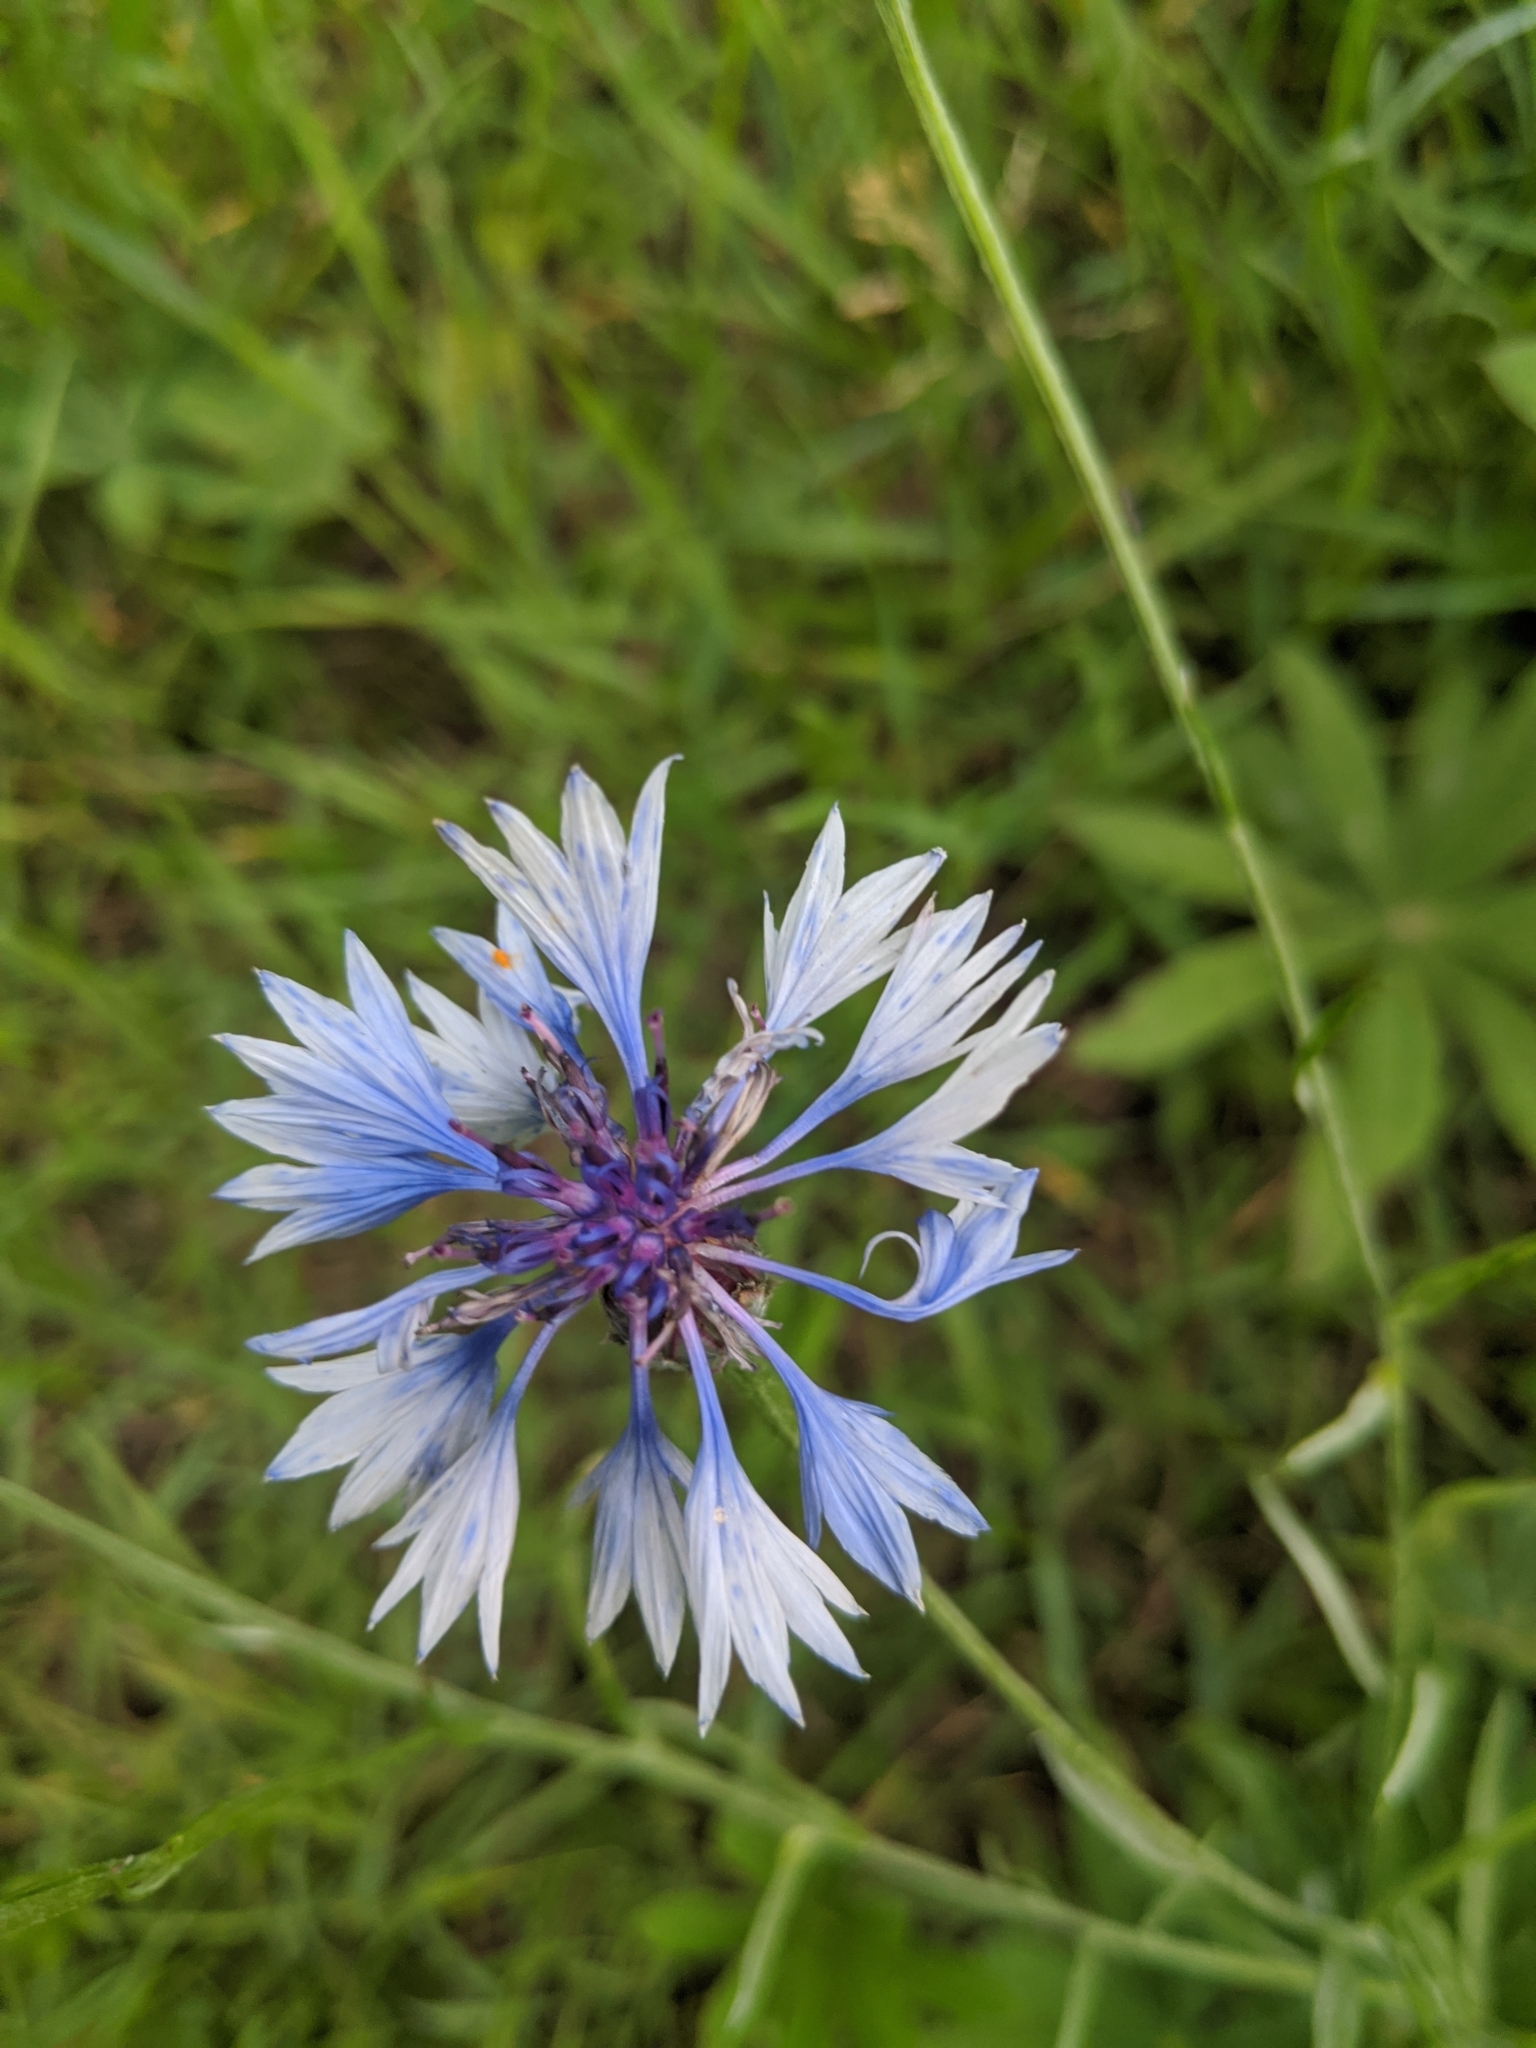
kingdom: Plantae
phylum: Tracheophyta
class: Magnoliopsida
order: Asterales
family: Asteraceae
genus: Centaurea
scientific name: Centaurea cyanus
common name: Cornflower
